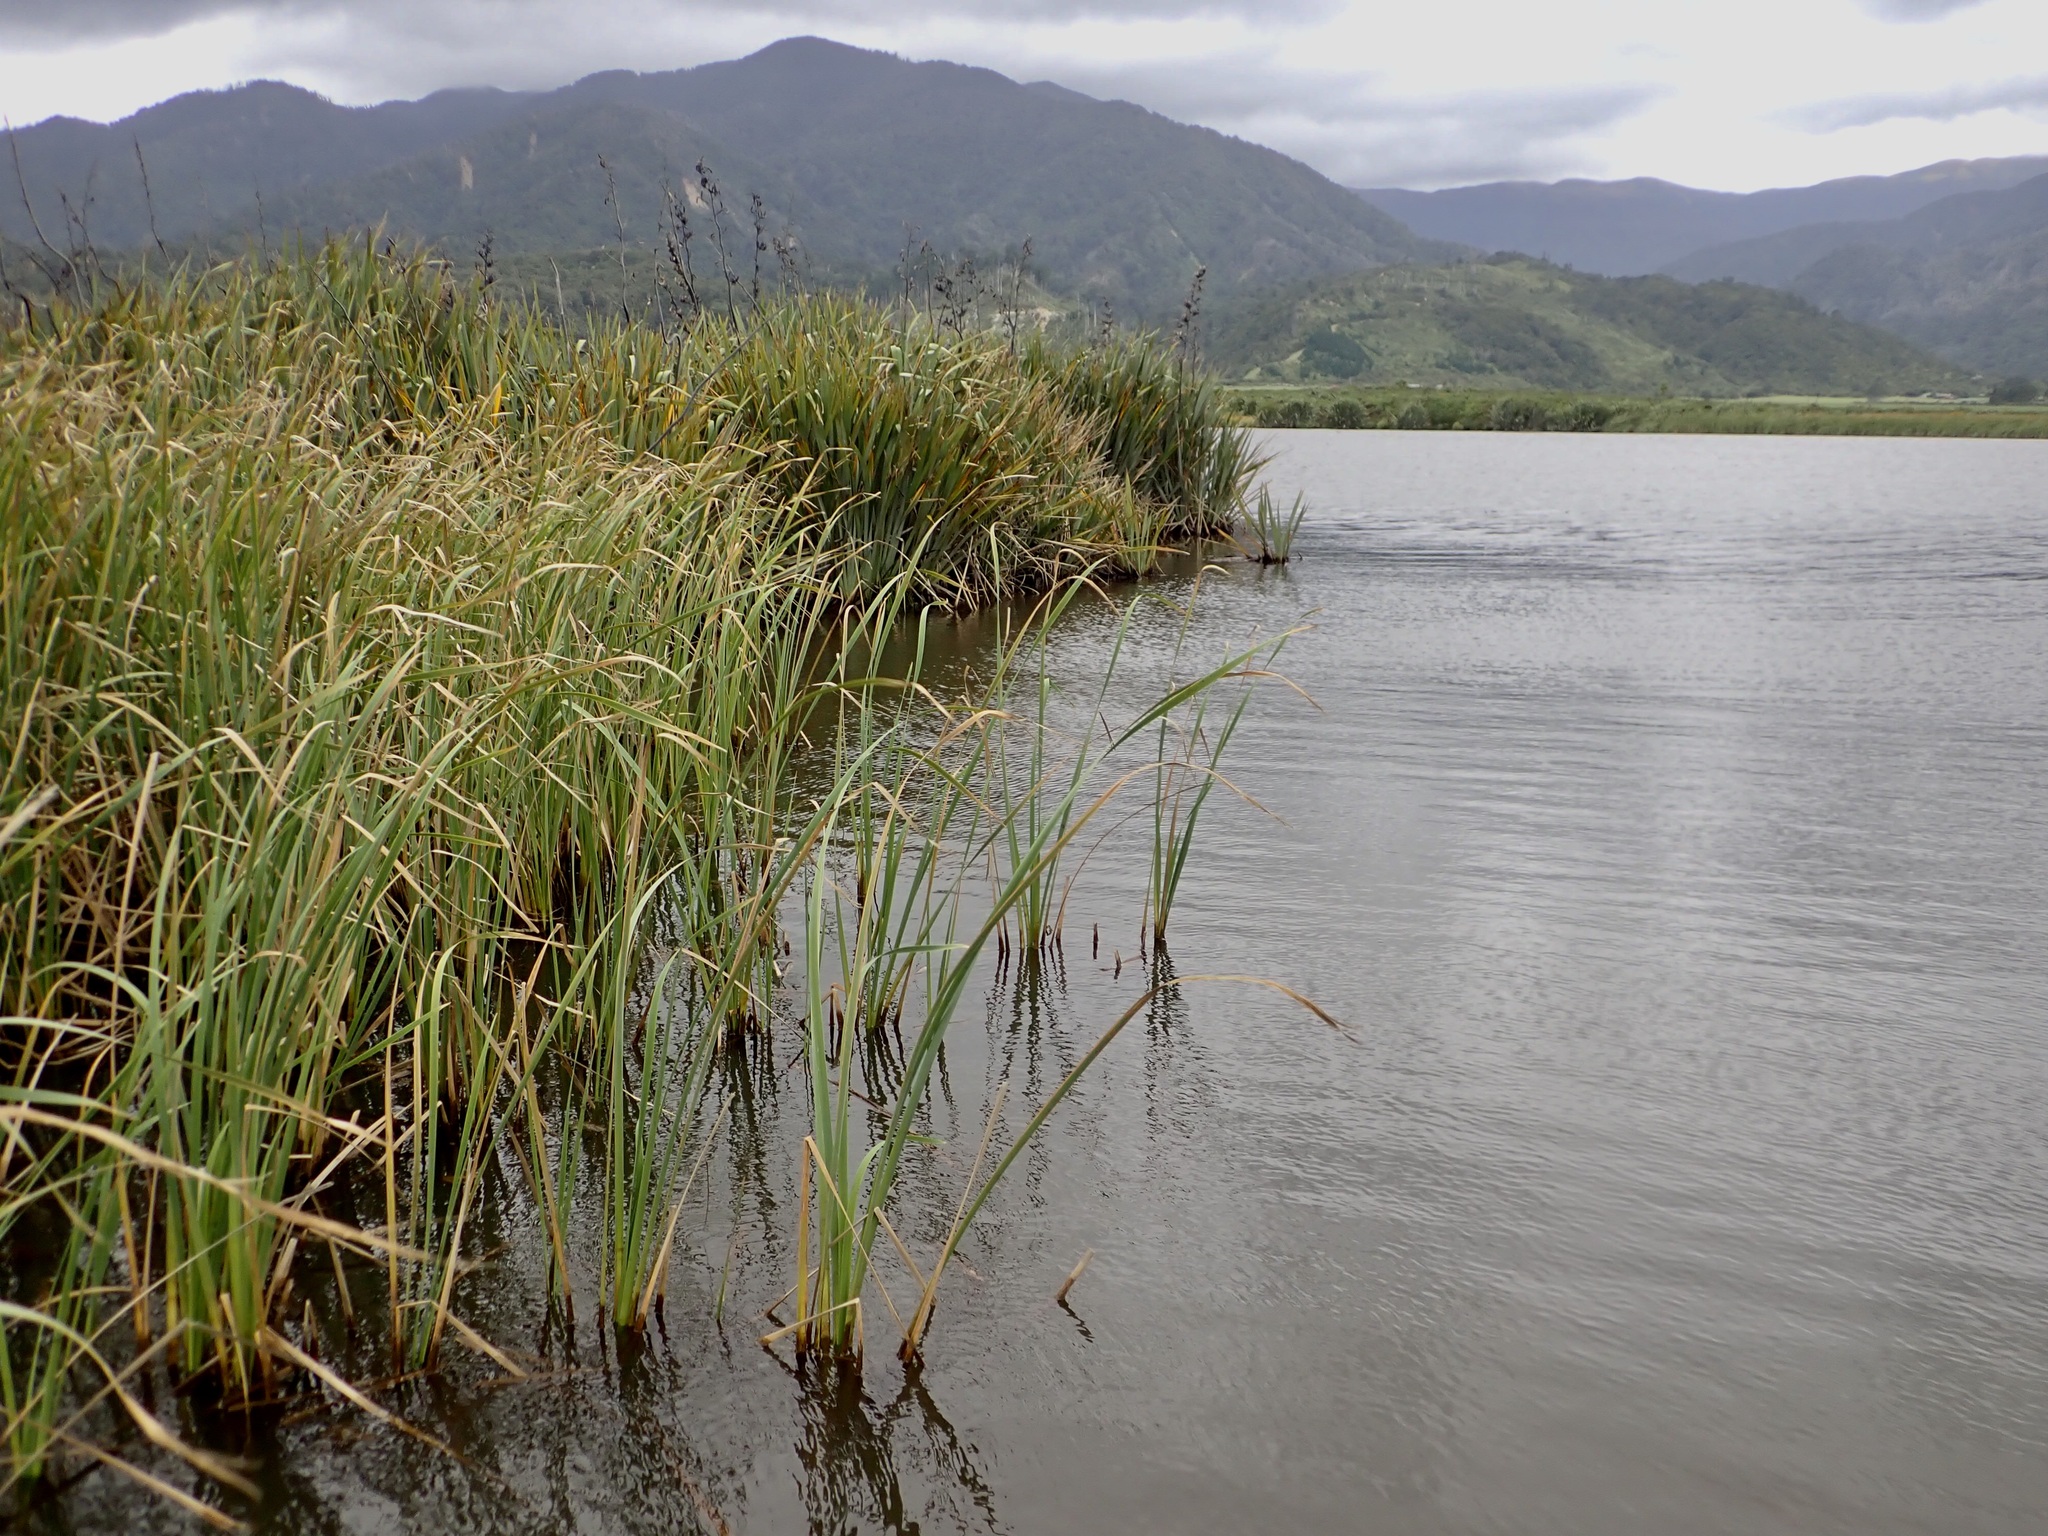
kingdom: Plantae
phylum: Tracheophyta
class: Liliopsida
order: Poales
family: Typhaceae
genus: Typha
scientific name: Typha orientalis
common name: Bullrush
